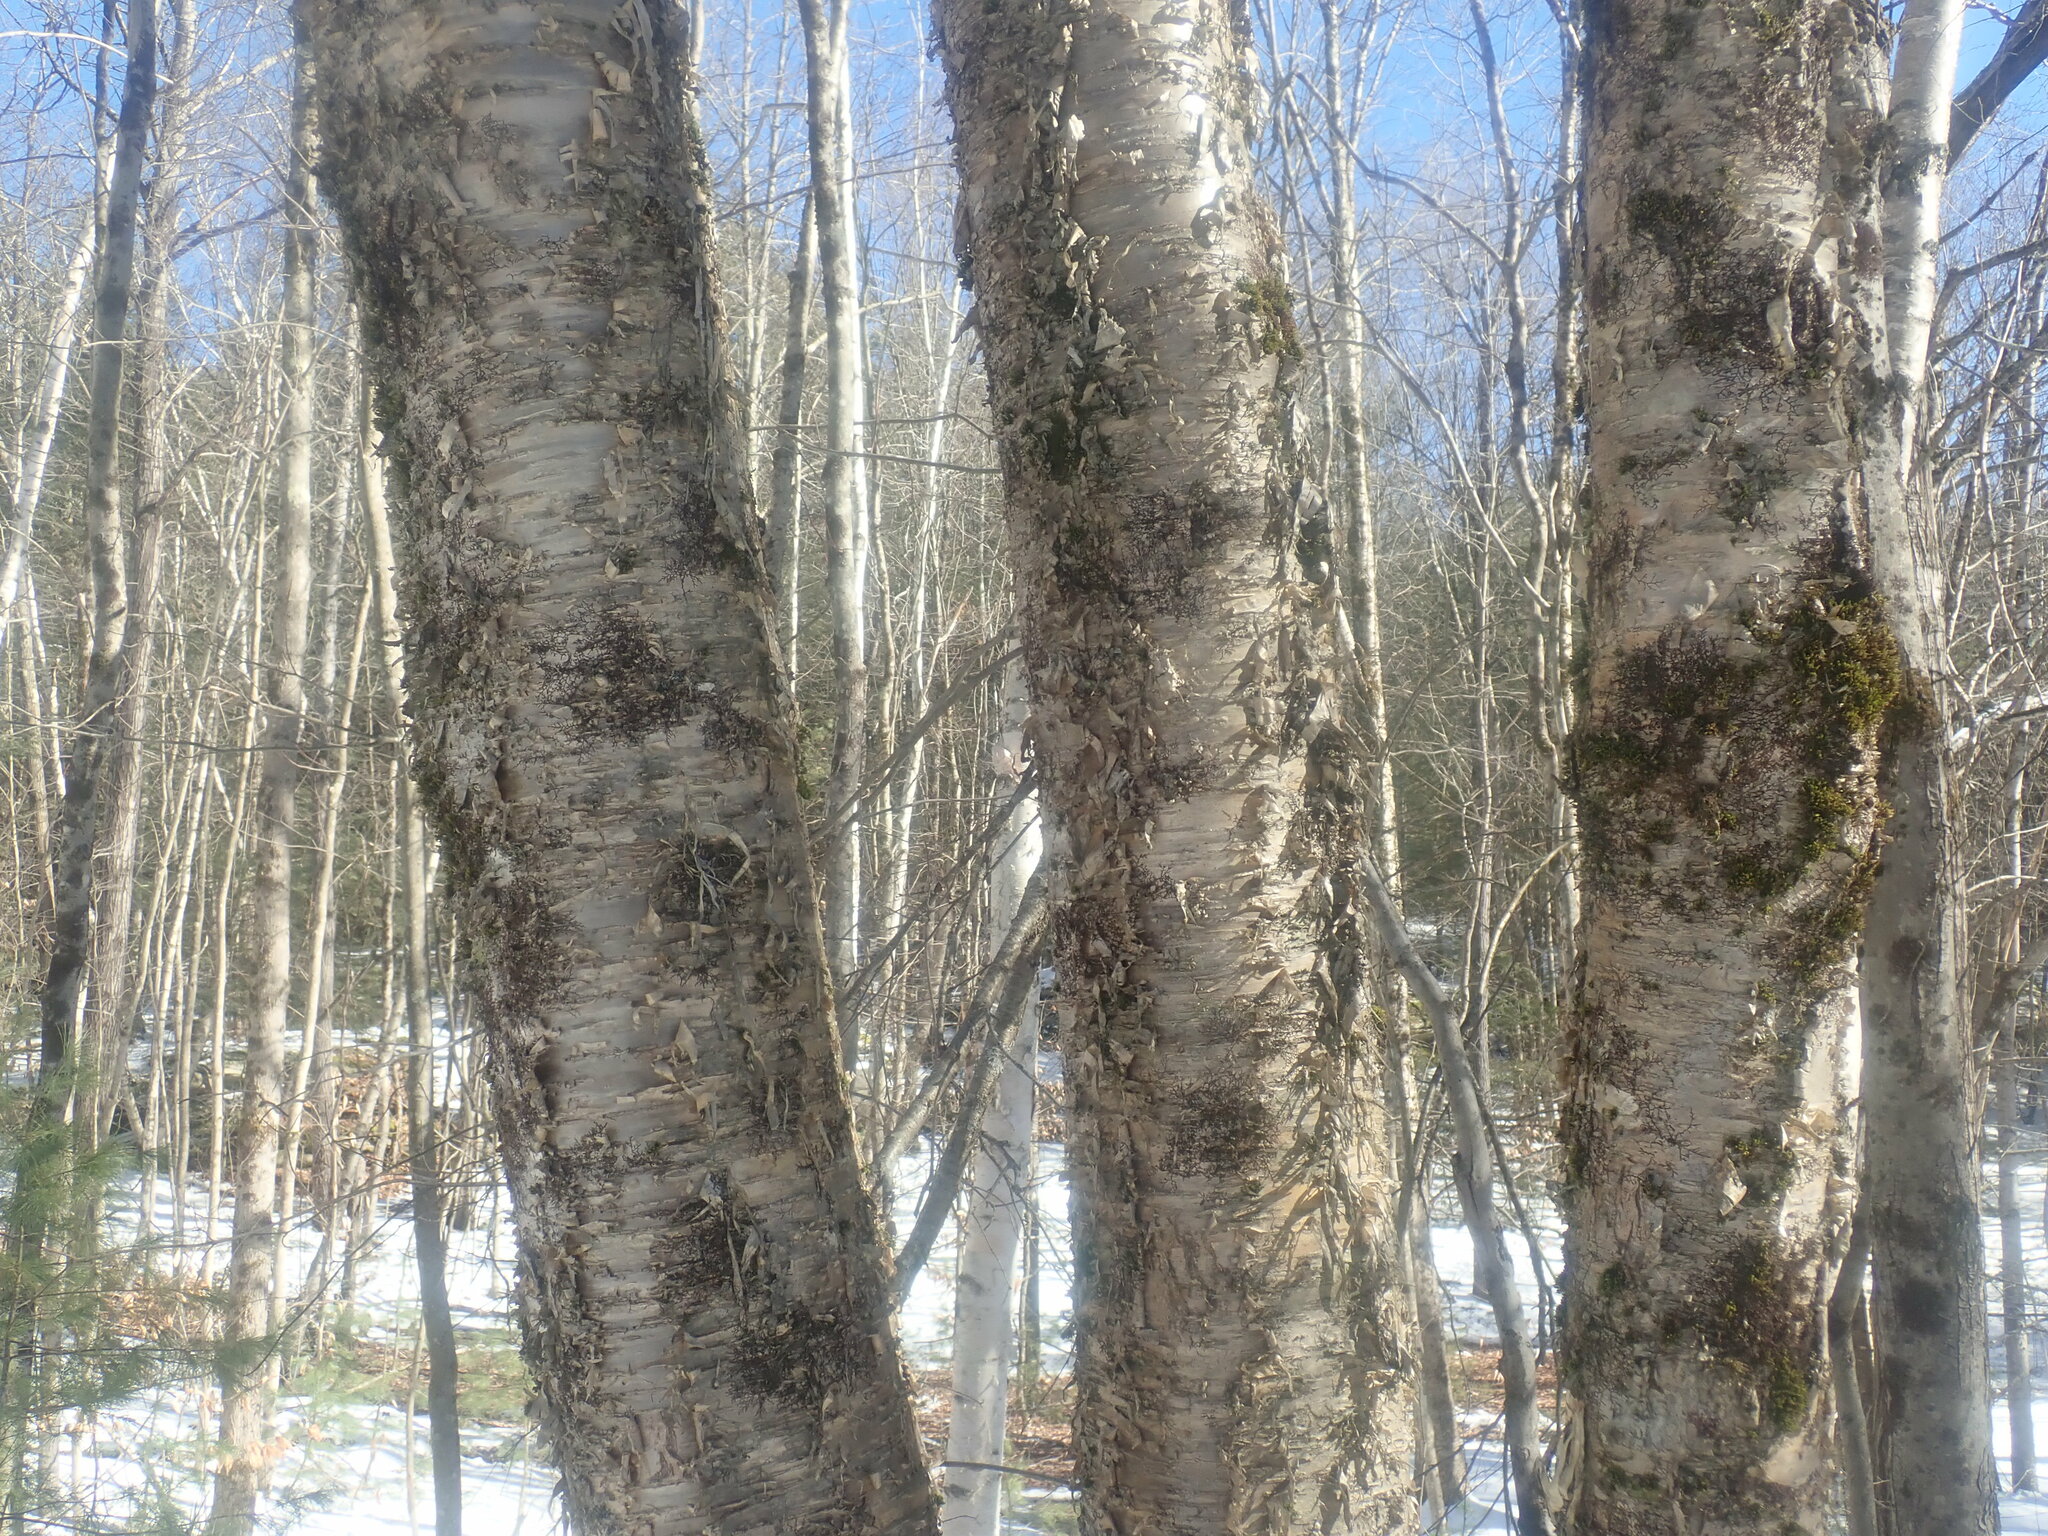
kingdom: Plantae
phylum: Tracheophyta
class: Magnoliopsida
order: Fagales
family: Betulaceae
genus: Betula
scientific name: Betula alleghaniensis
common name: Yellow birch
